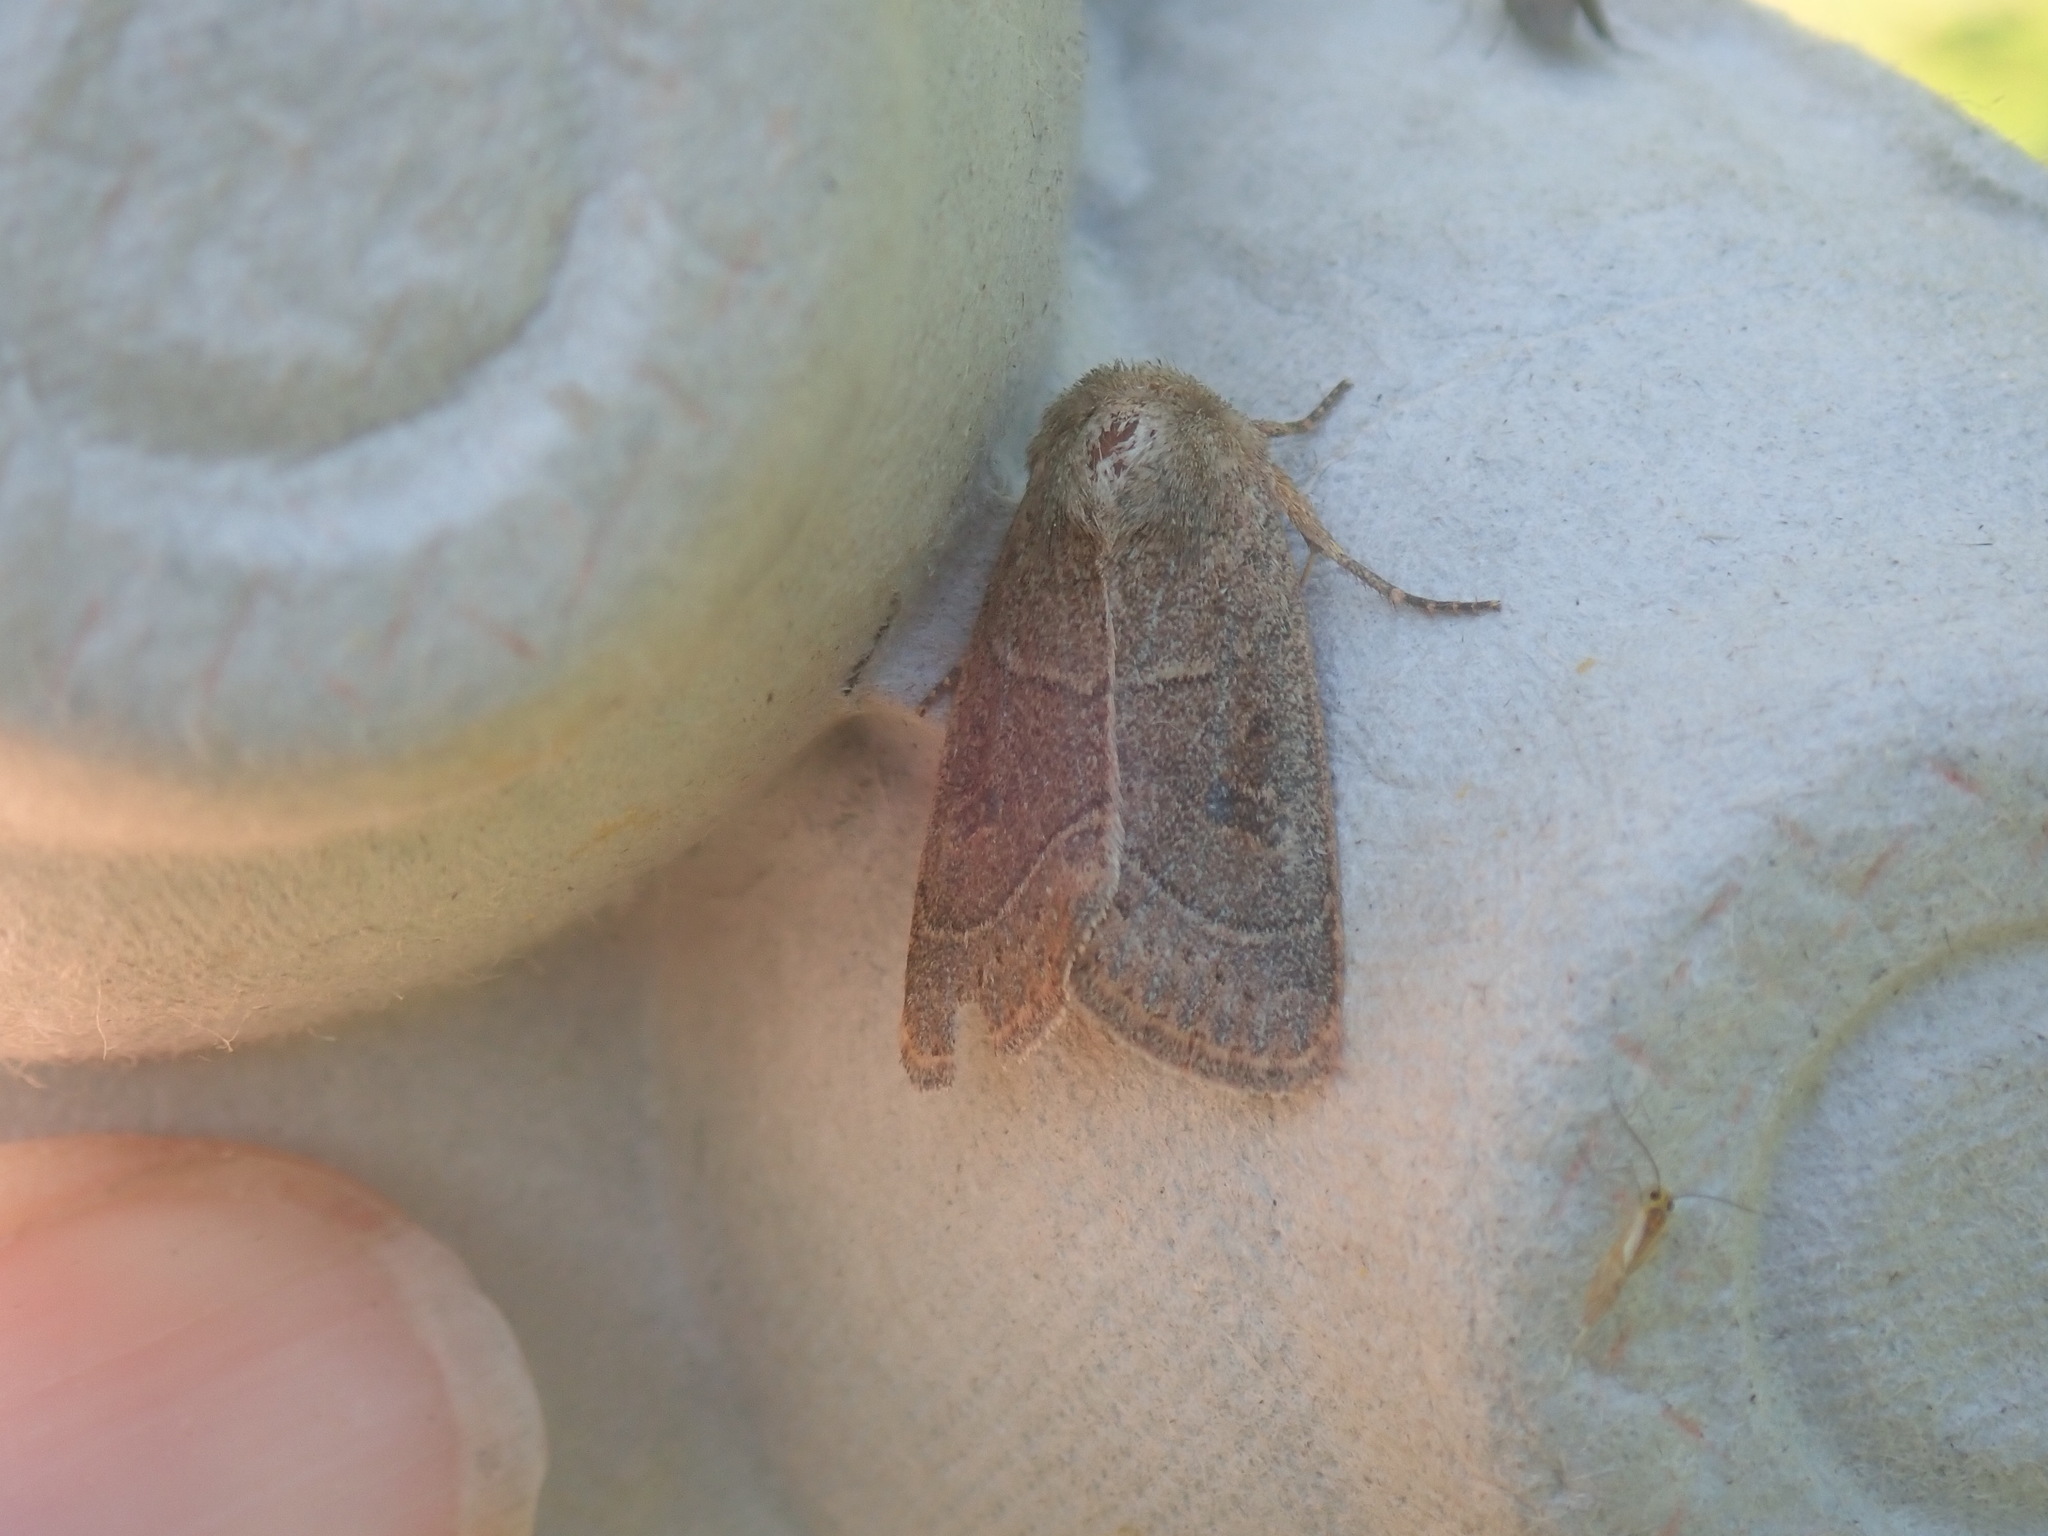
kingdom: Animalia
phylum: Arthropoda
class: Insecta
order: Lepidoptera
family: Noctuidae
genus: Ulolonche
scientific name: Ulolonche culea
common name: Sheathed quaker
